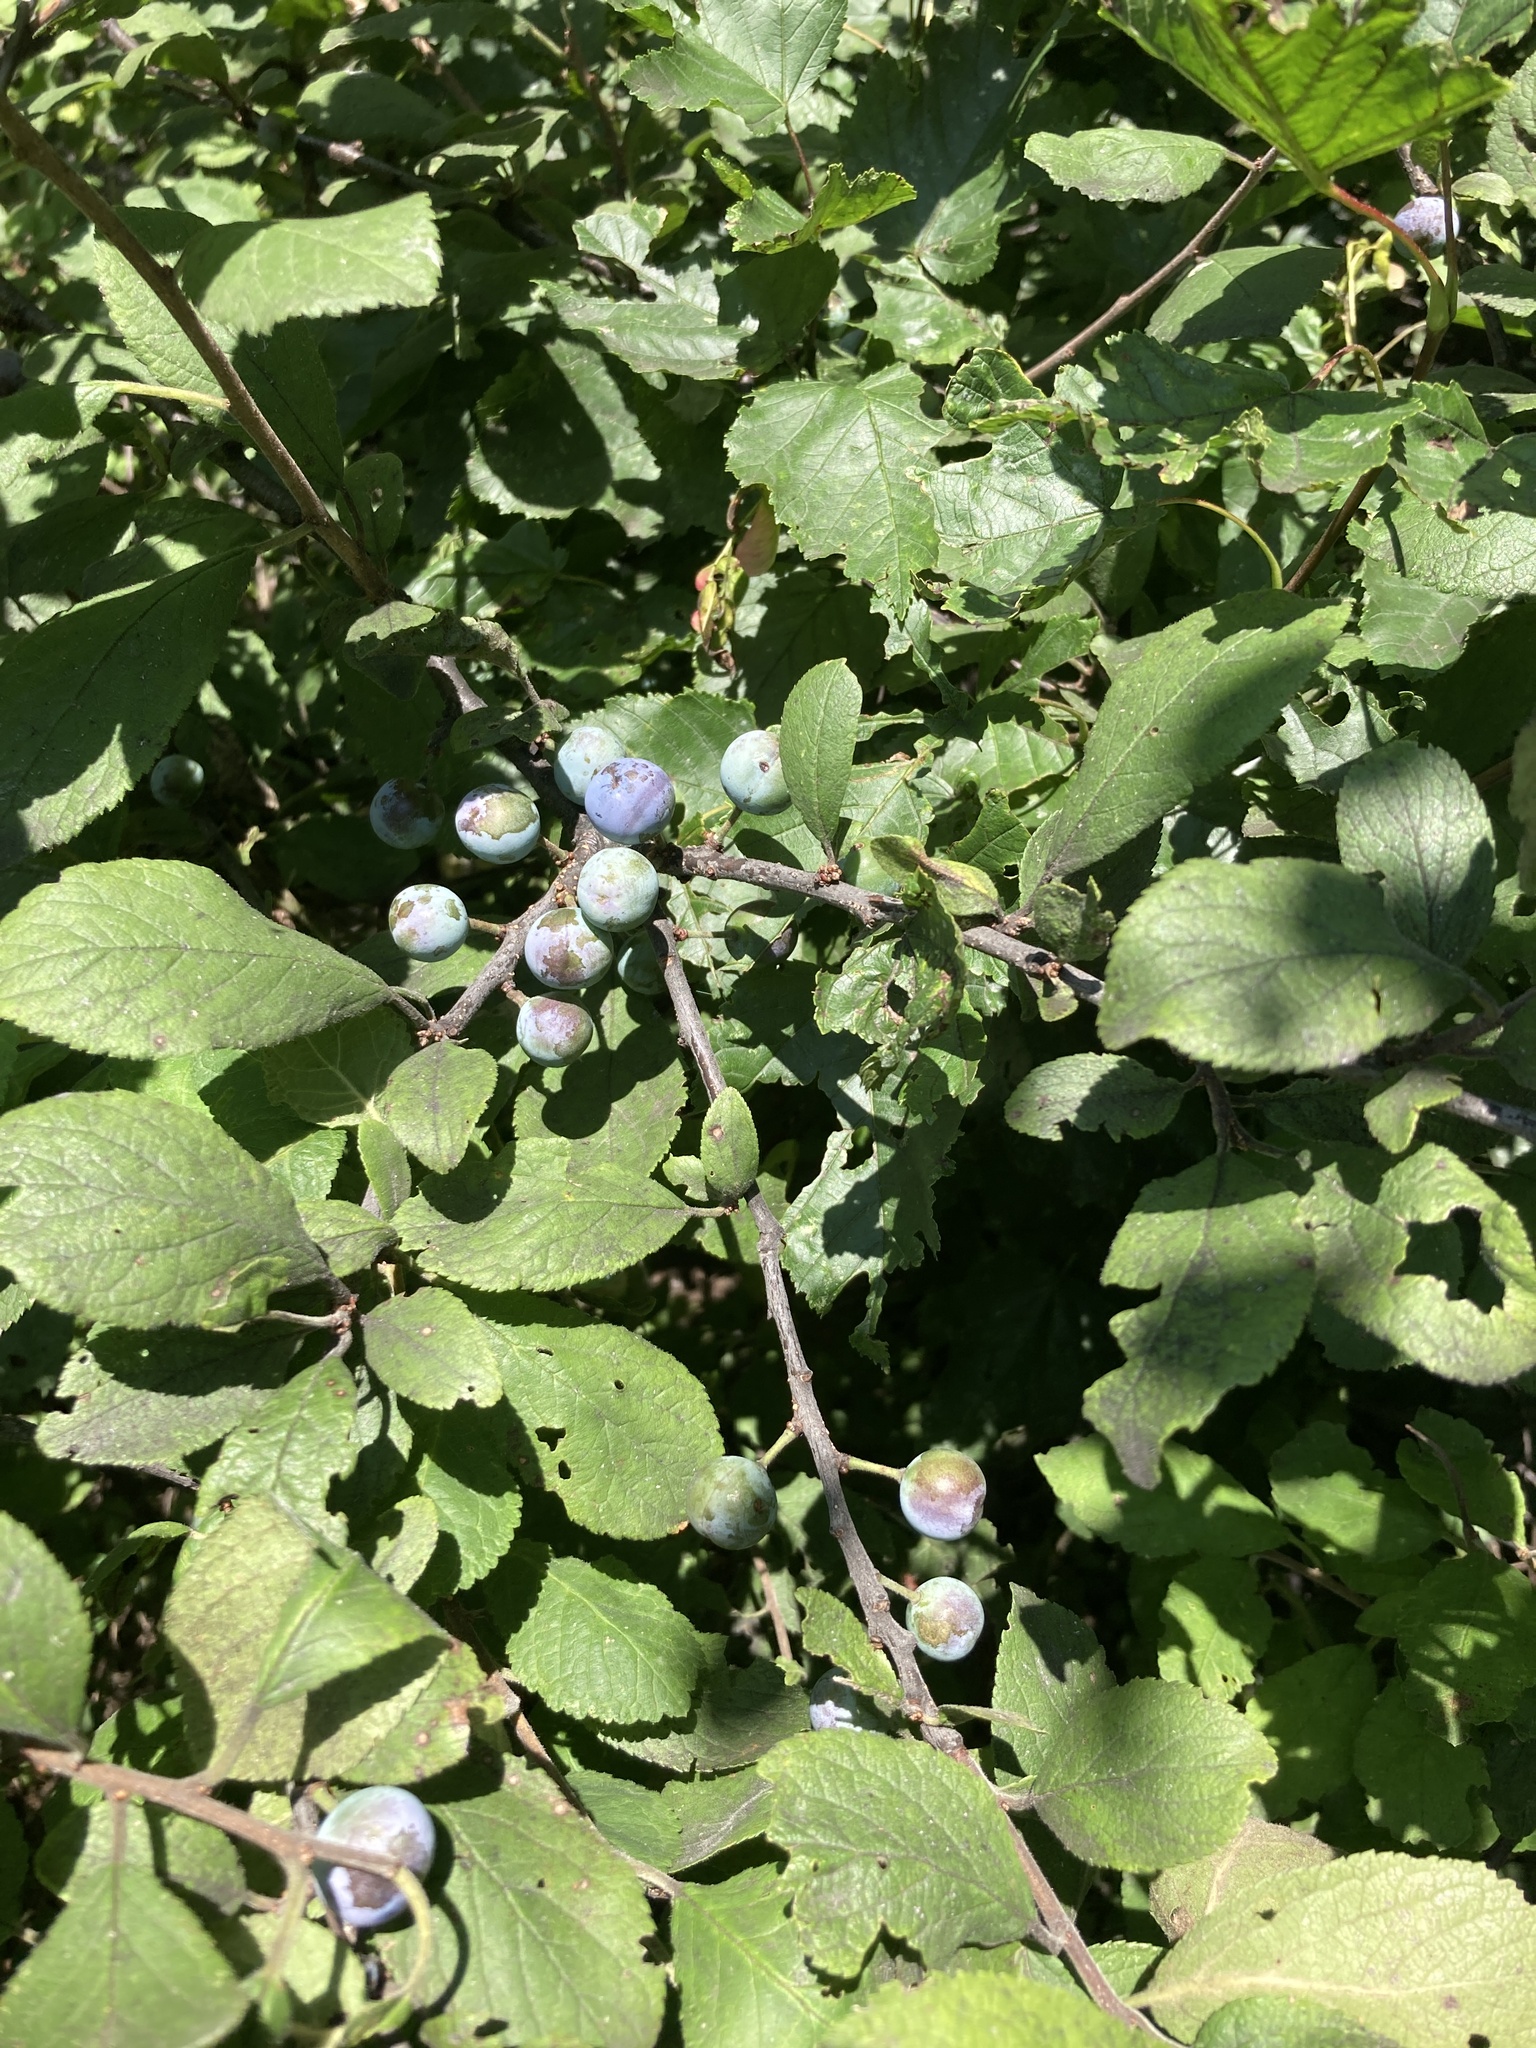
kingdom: Plantae
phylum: Tracheophyta
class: Magnoliopsida
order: Rosales
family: Rosaceae
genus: Prunus
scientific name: Prunus spinosa
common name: Blackthorn
